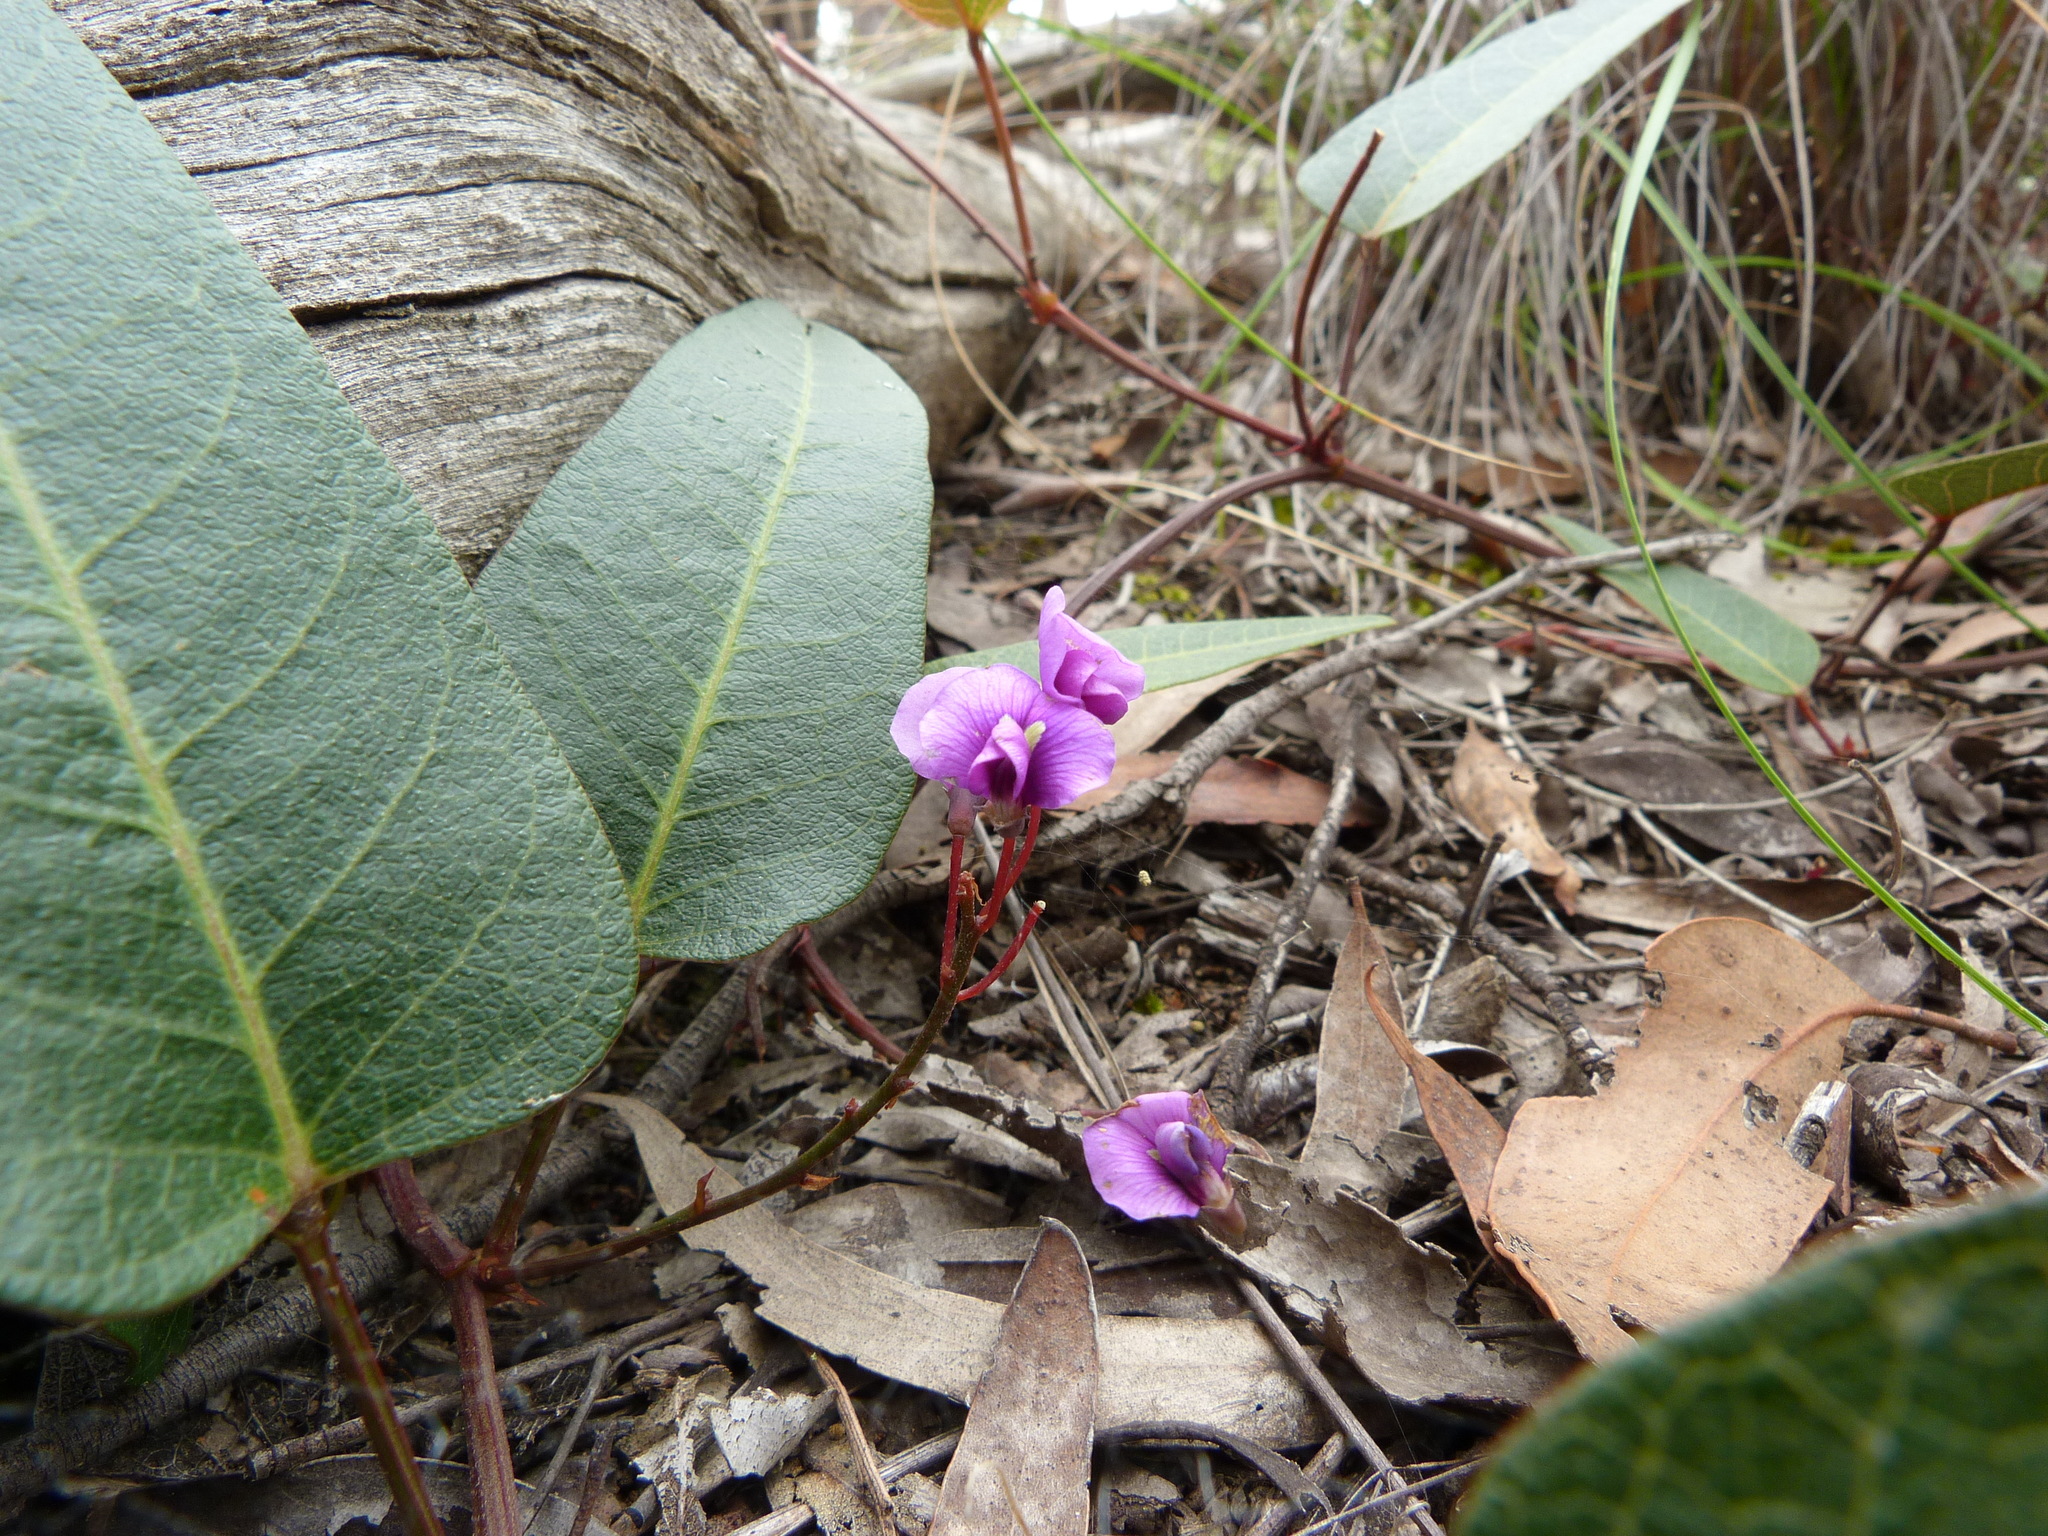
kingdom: Plantae
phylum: Tracheophyta
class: Magnoliopsida
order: Fabales
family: Fabaceae
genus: Hardenbergia
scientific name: Hardenbergia violacea
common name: Coral-pea
